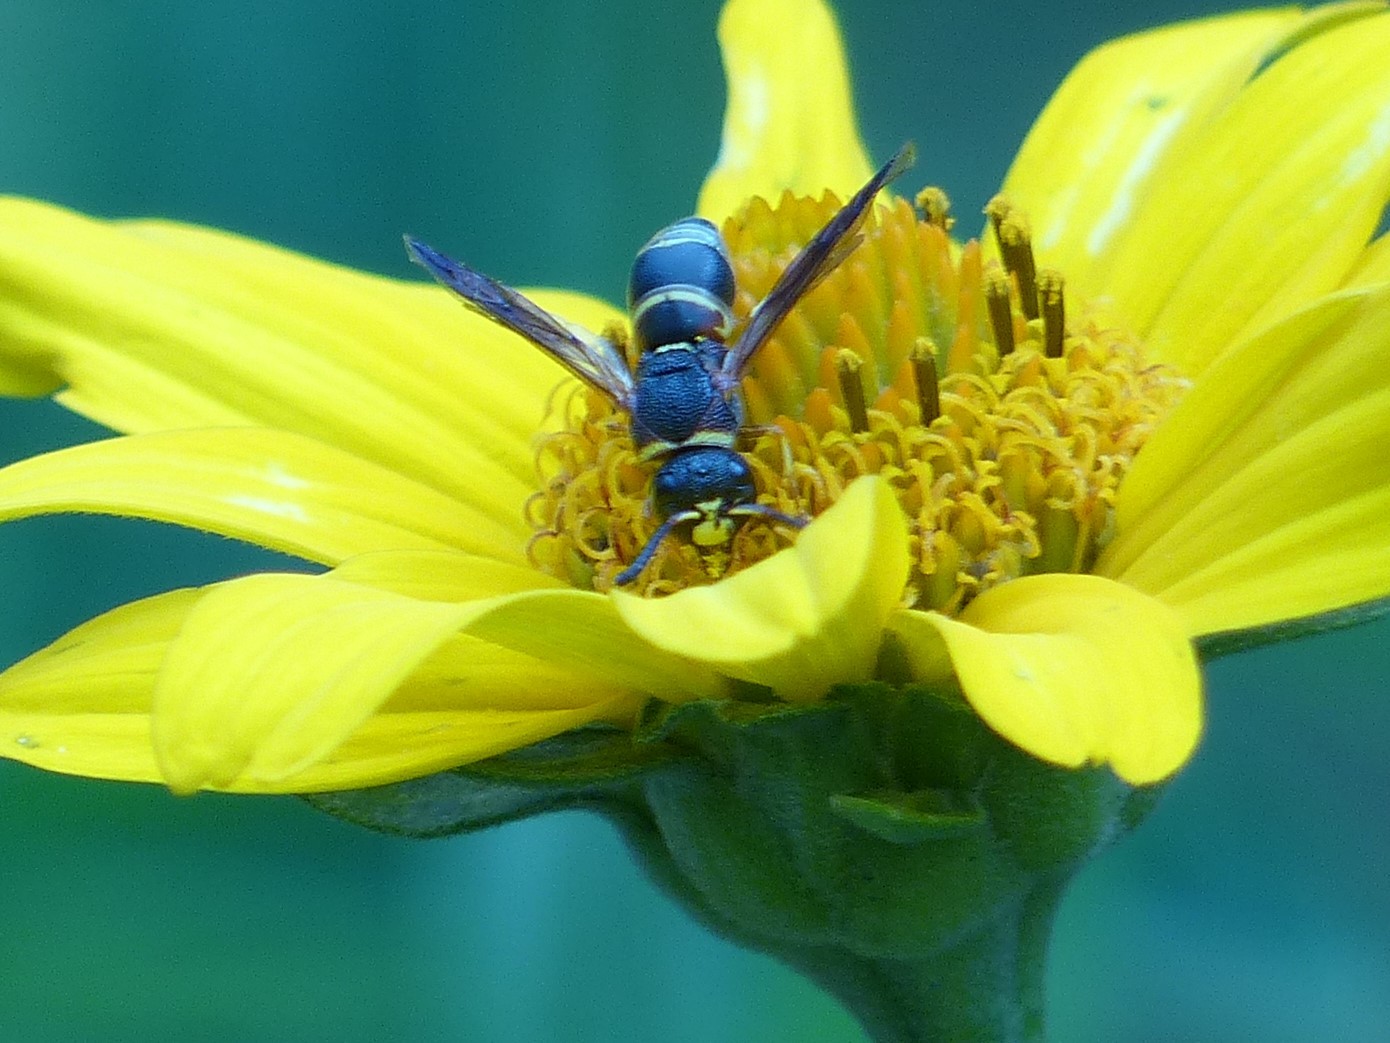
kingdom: Animalia
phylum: Arthropoda
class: Insecta
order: Hymenoptera
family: Eumenidae
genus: Euodynerus
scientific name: Euodynerus hidalgo
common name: Wasp
